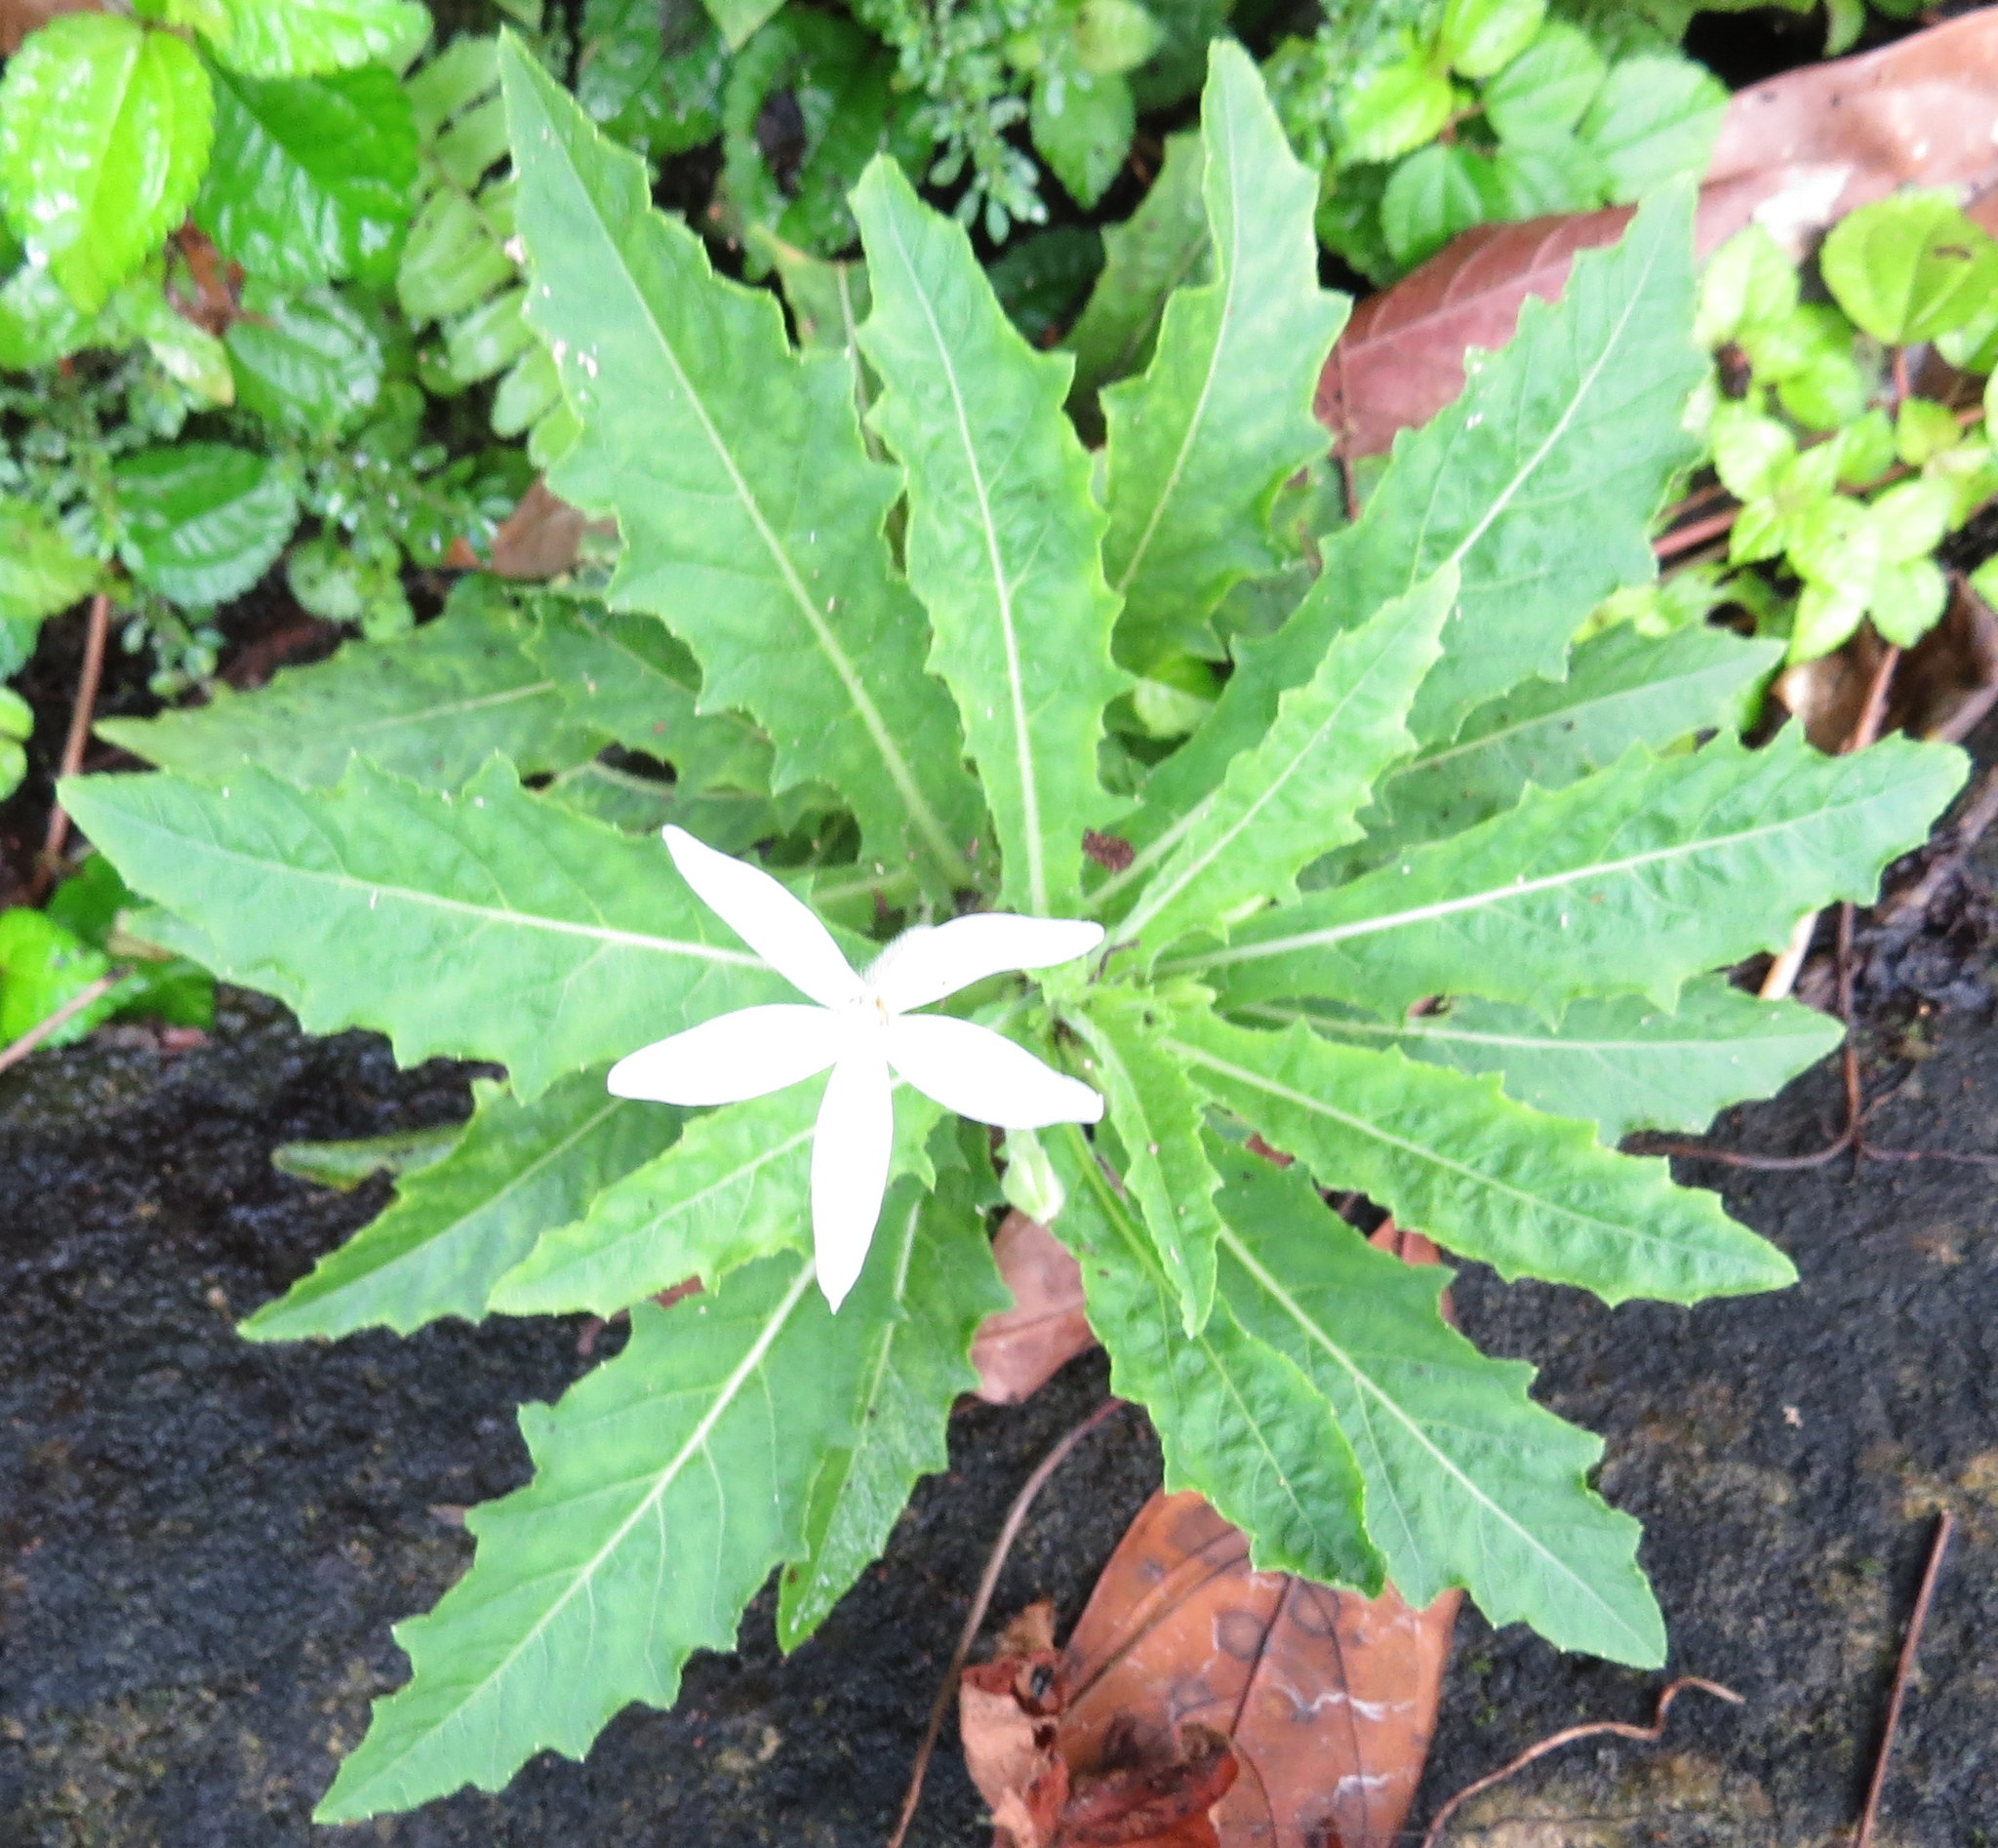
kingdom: Plantae
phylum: Tracheophyta
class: Magnoliopsida
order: Asterales
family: Campanulaceae
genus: Hippobroma
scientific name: Hippobroma longiflora
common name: Madamfate
